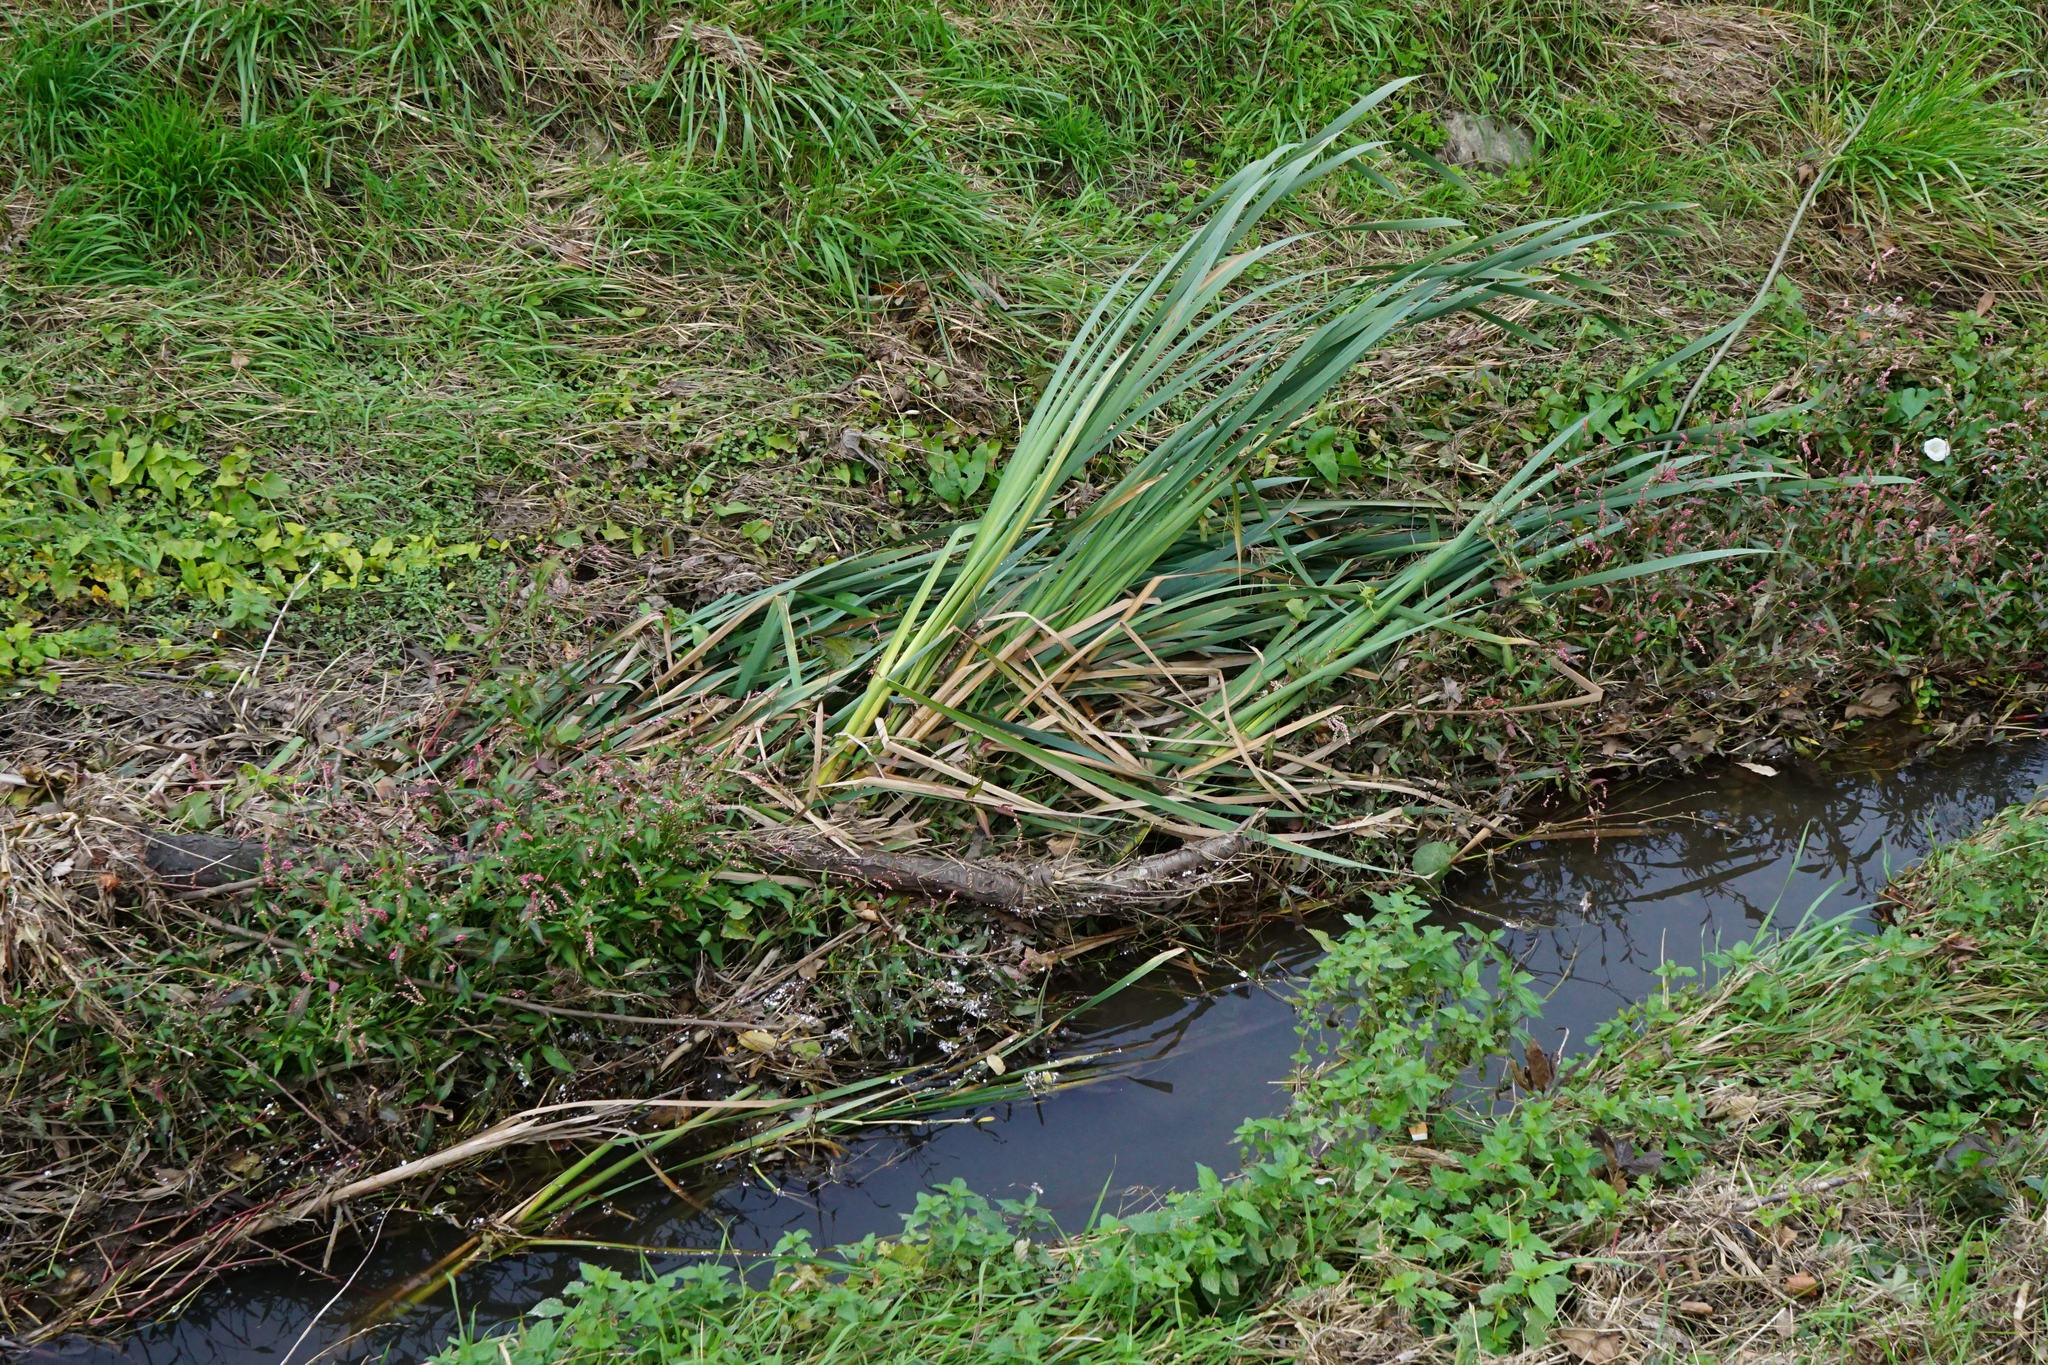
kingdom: Plantae
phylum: Tracheophyta
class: Liliopsida
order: Poales
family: Typhaceae
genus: Typha
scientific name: Typha latifolia
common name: Broadleaf cattail
